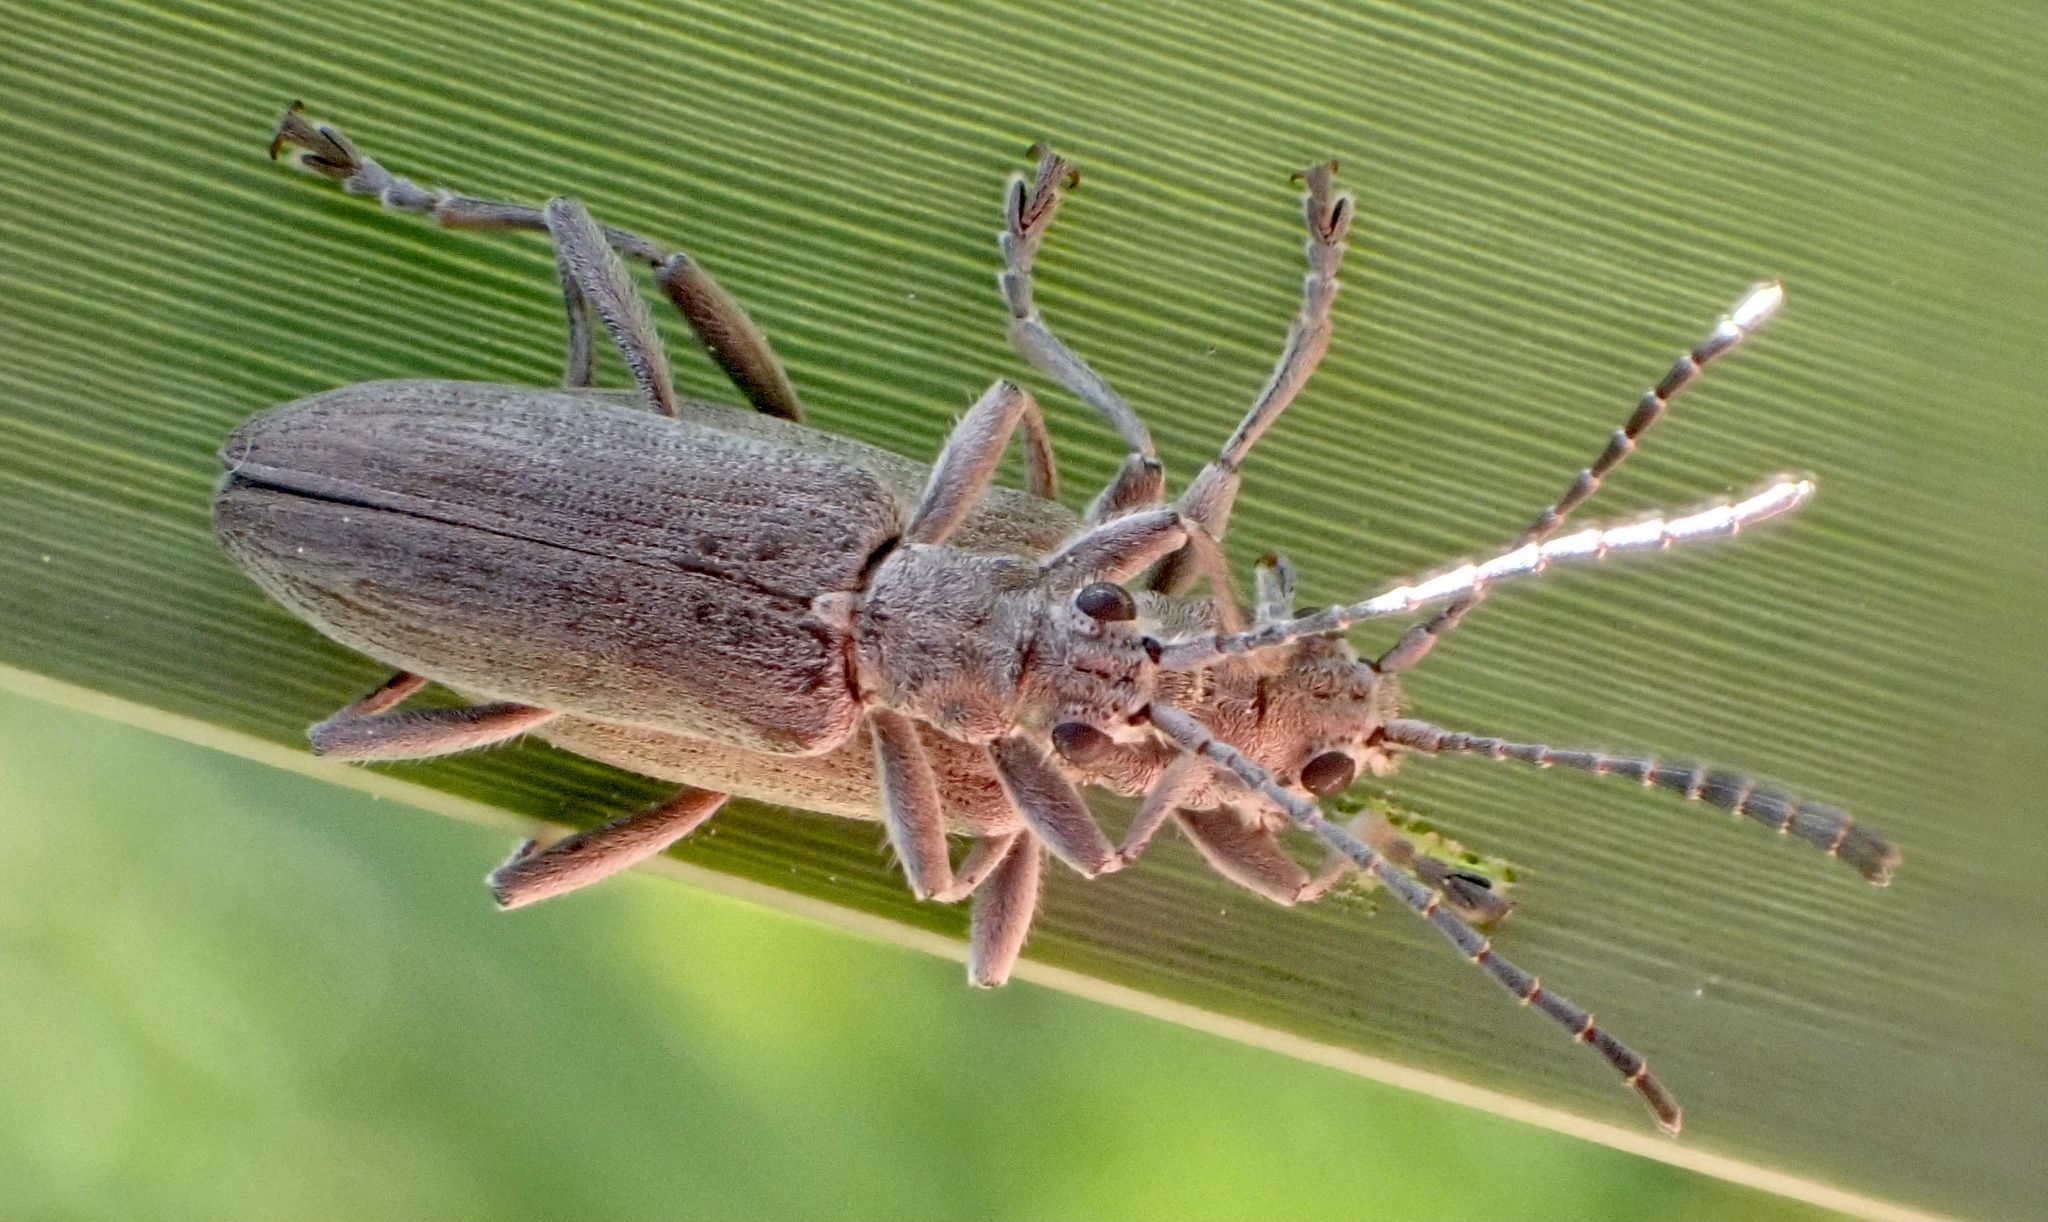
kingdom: Animalia
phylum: Arthropoda
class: Insecta
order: Coleoptera
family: Chrysomelidae
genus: Donacia
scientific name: Donacia cinerea
